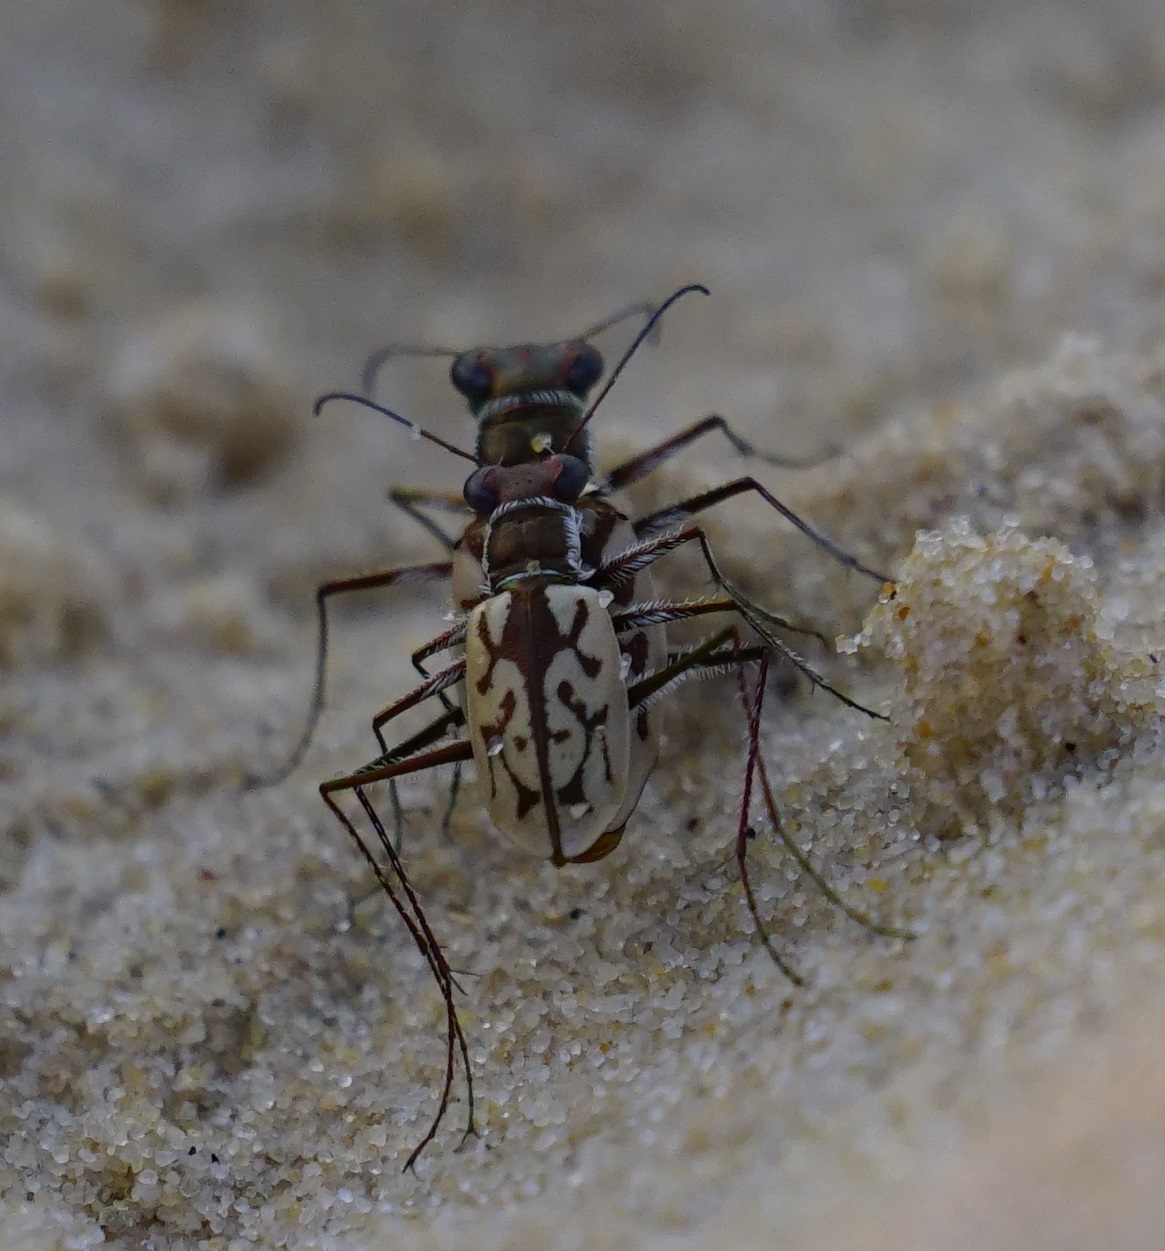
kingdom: Animalia
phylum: Arthropoda
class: Insecta
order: Coleoptera
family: Carabidae
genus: Hypaetha
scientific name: Hypaetha upsilon
